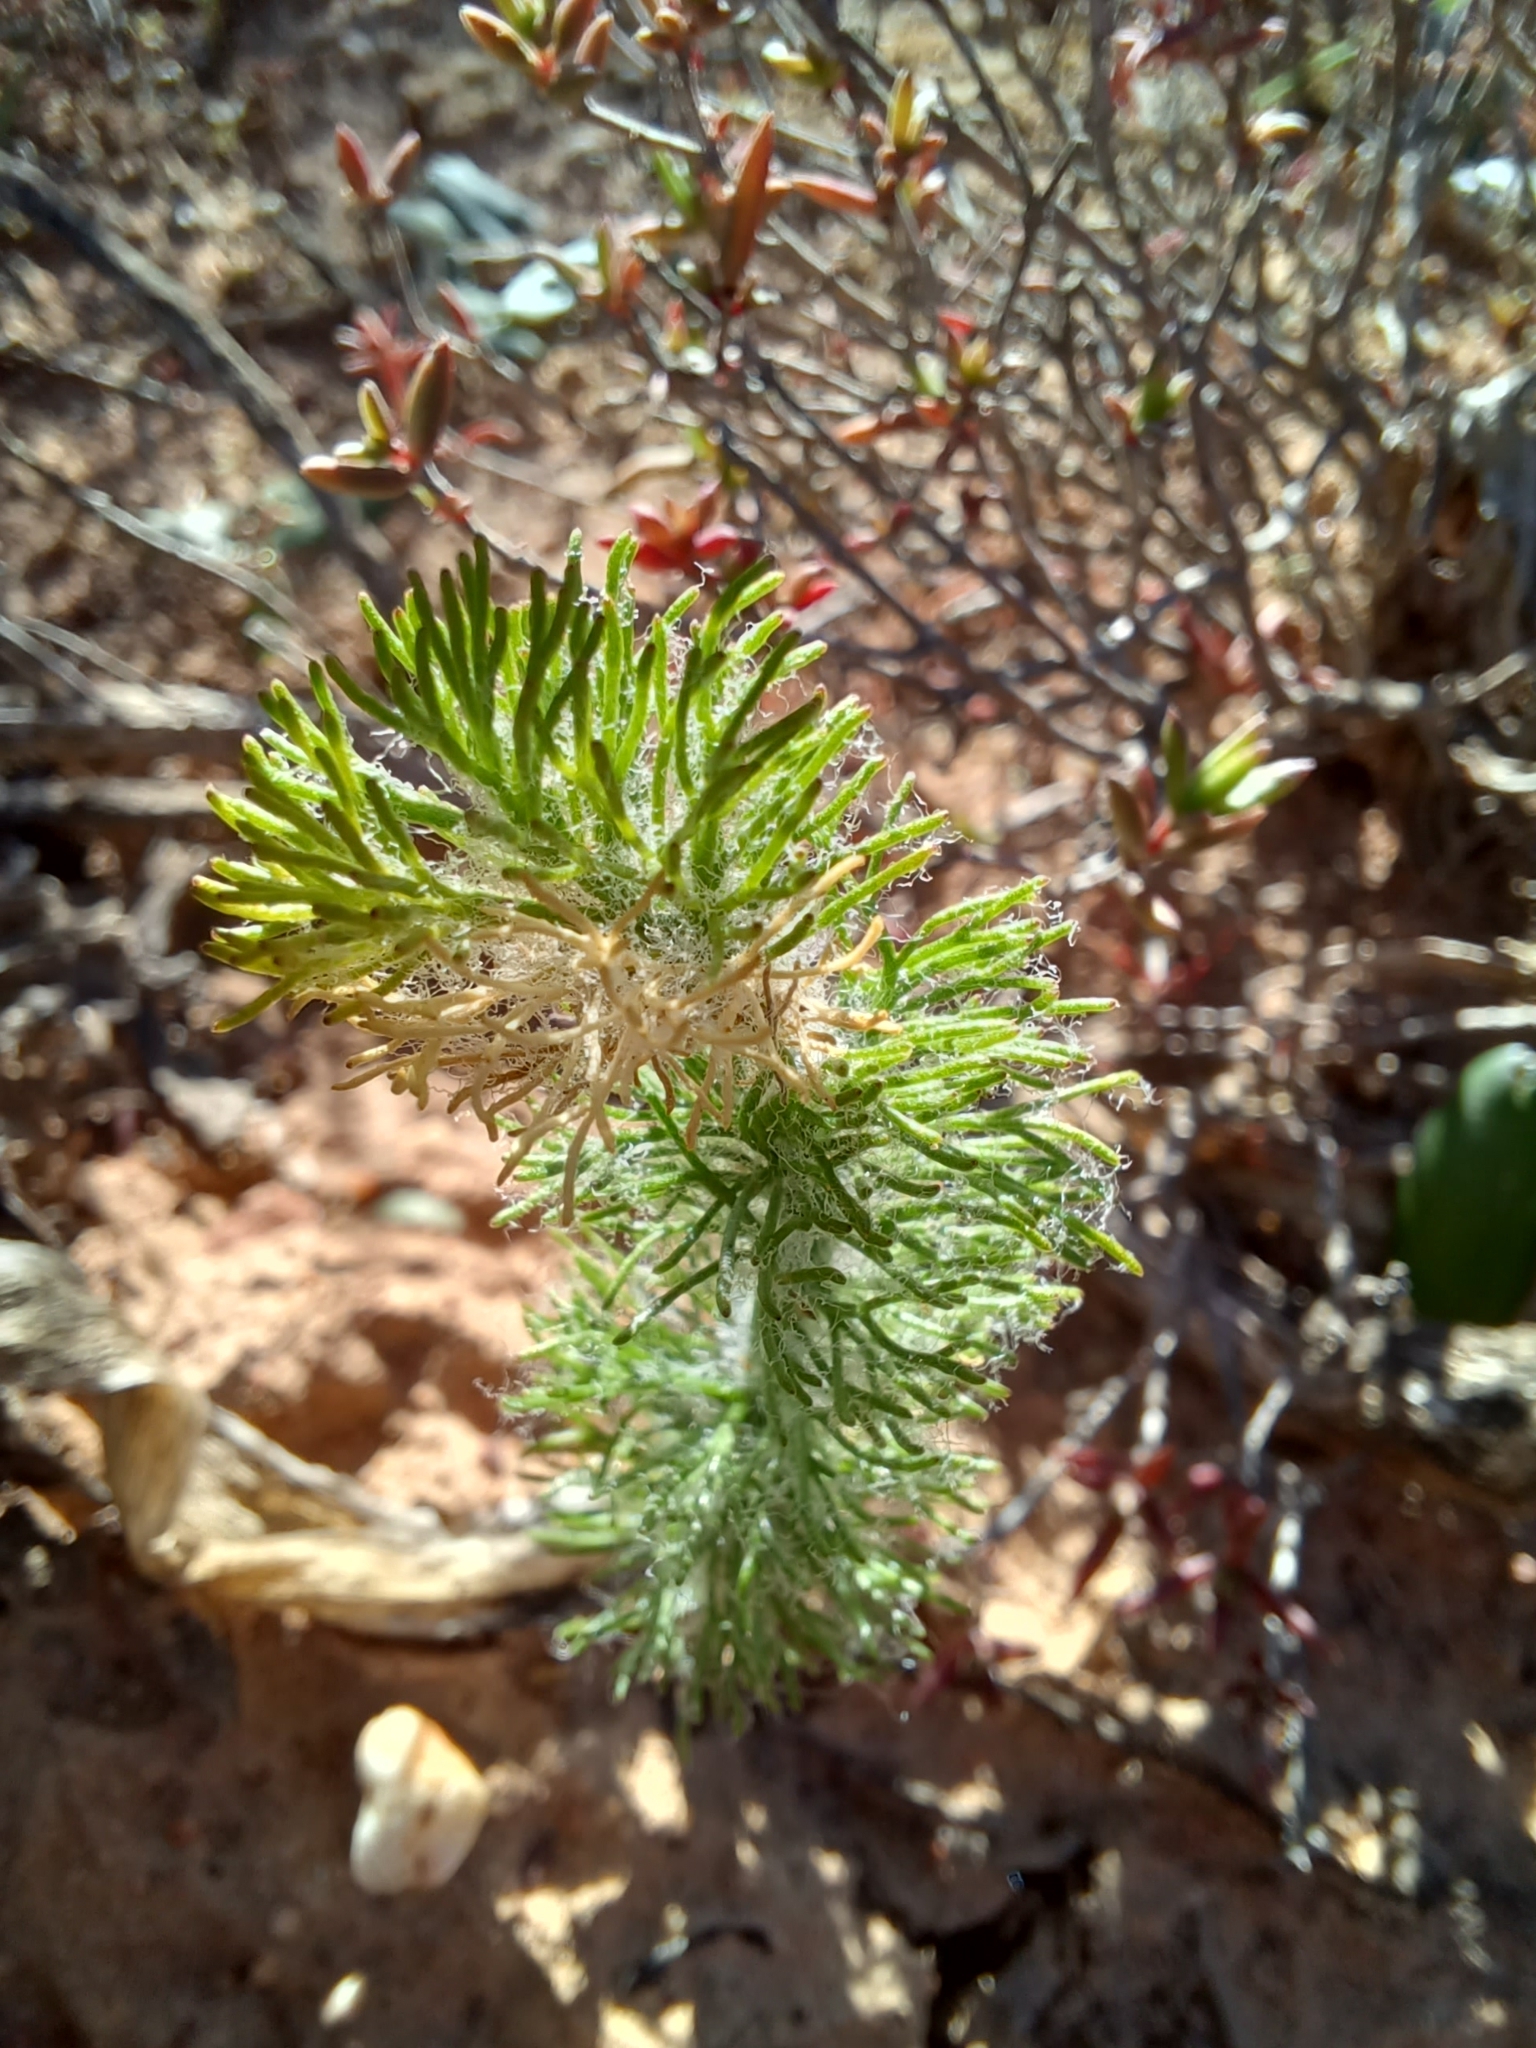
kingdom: Plantae
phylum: Tracheophyta
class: Liliopsida
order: Asparagales
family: Asparagaceae
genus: Eriospermum
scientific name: Eriospermum paradoxum
